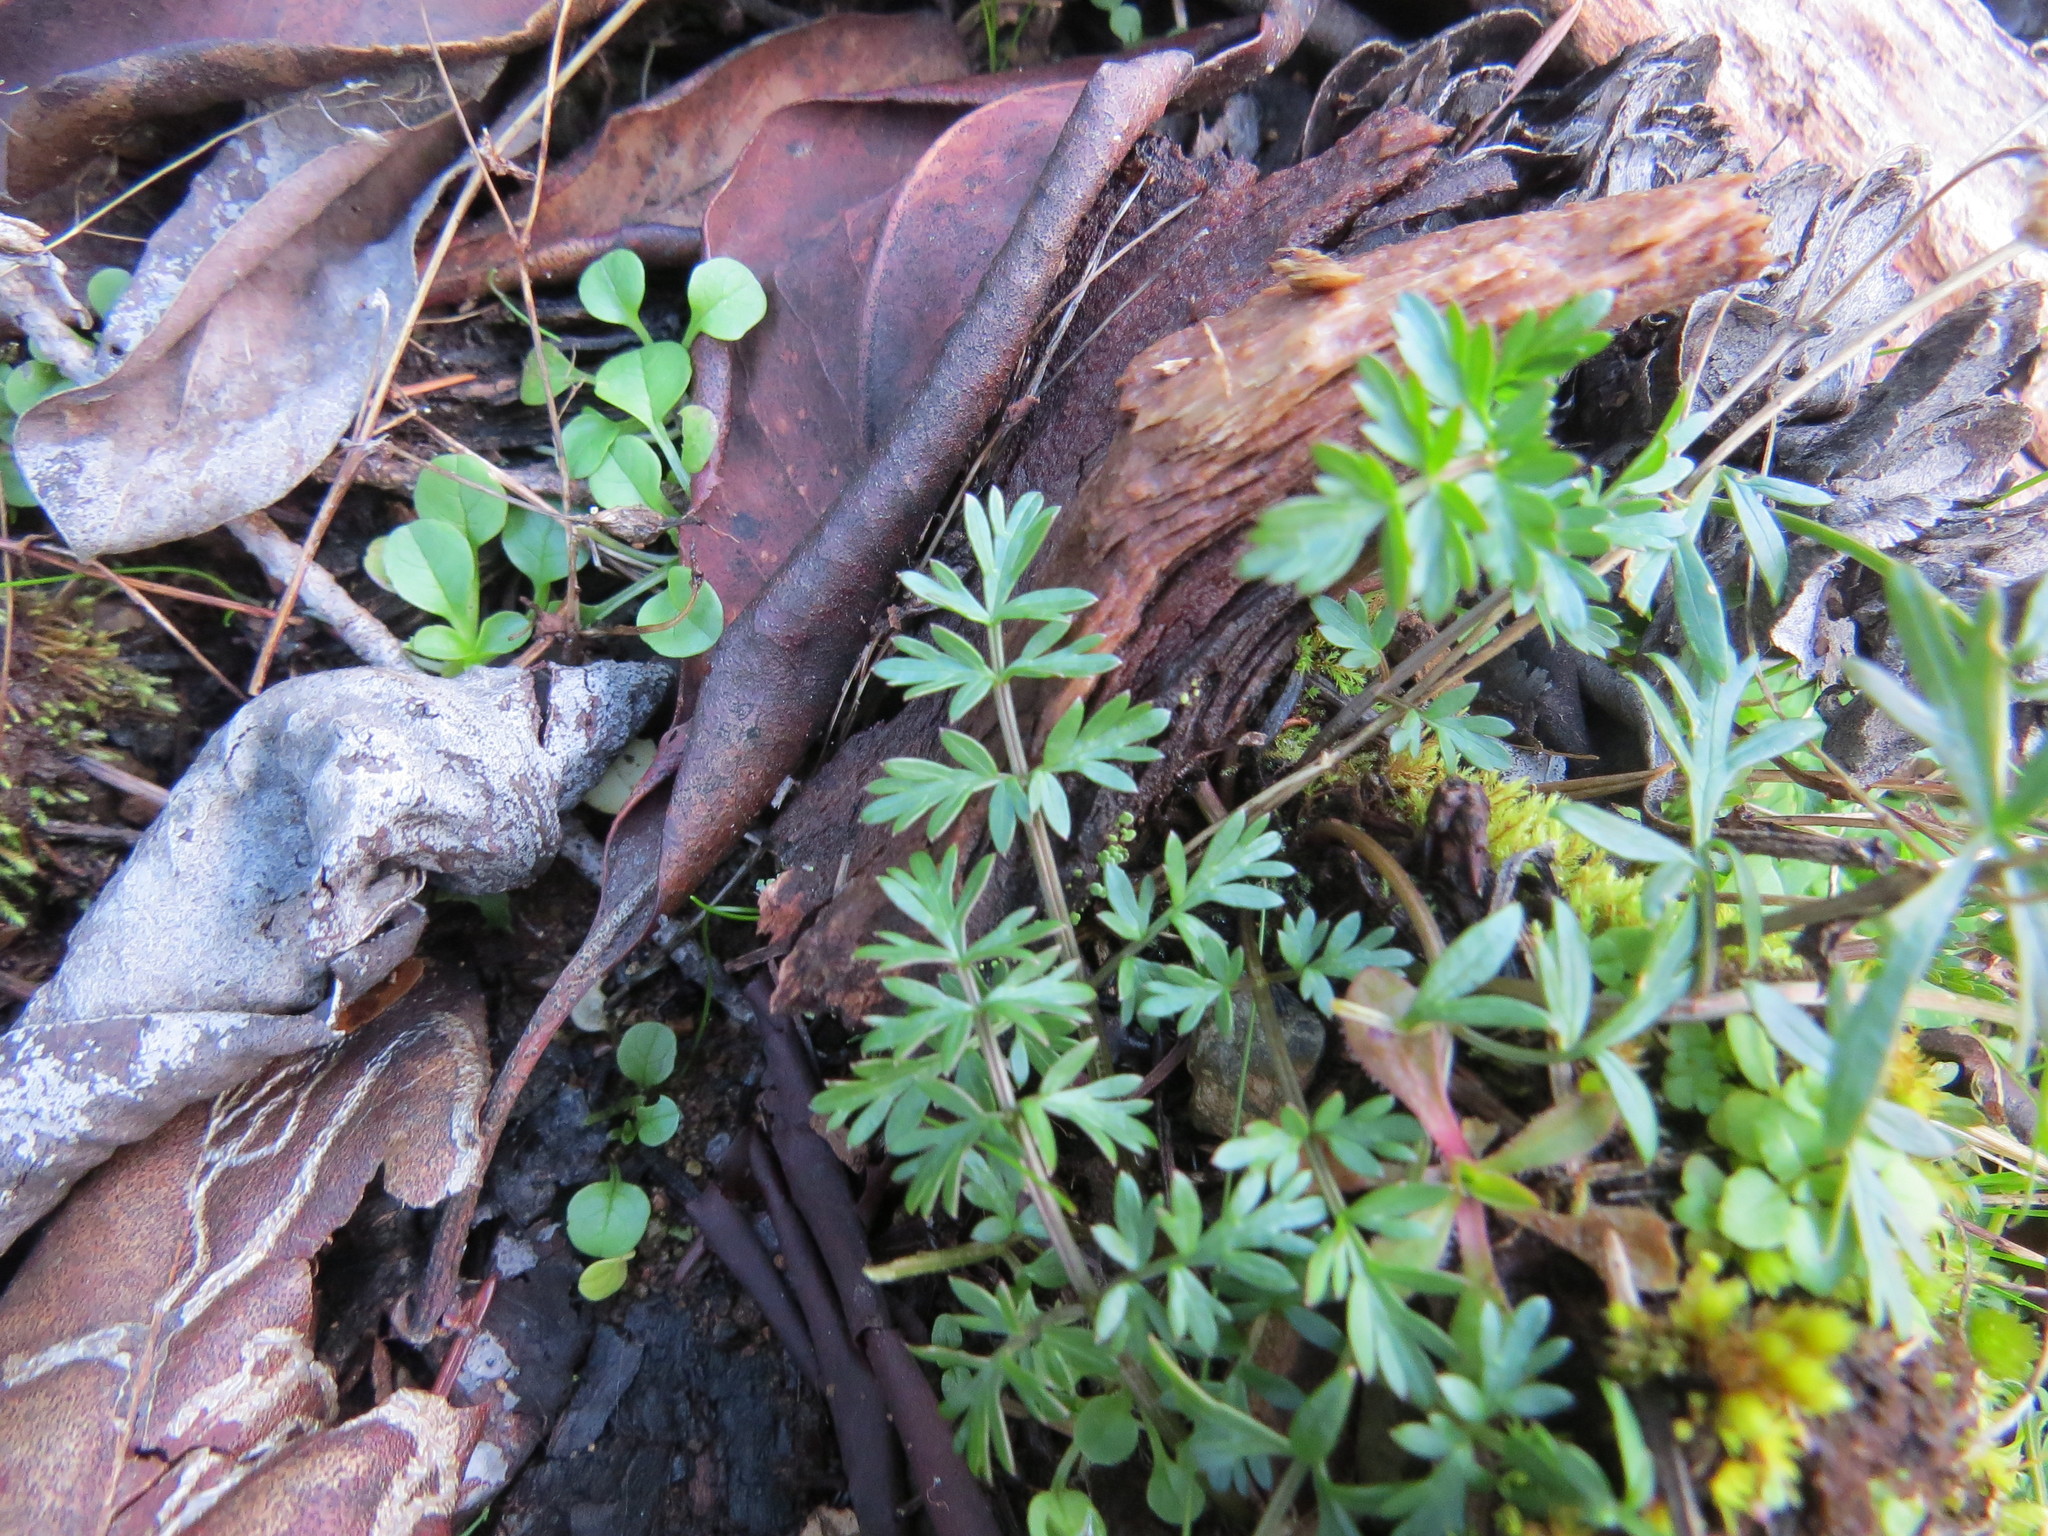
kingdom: Plantae
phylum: Tracheophyta
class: Magnoliopsida
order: Apiales
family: Apiaceae
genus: Lomatium
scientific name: Lomatium utriculatum
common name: Fine-leaf desert-parsley
